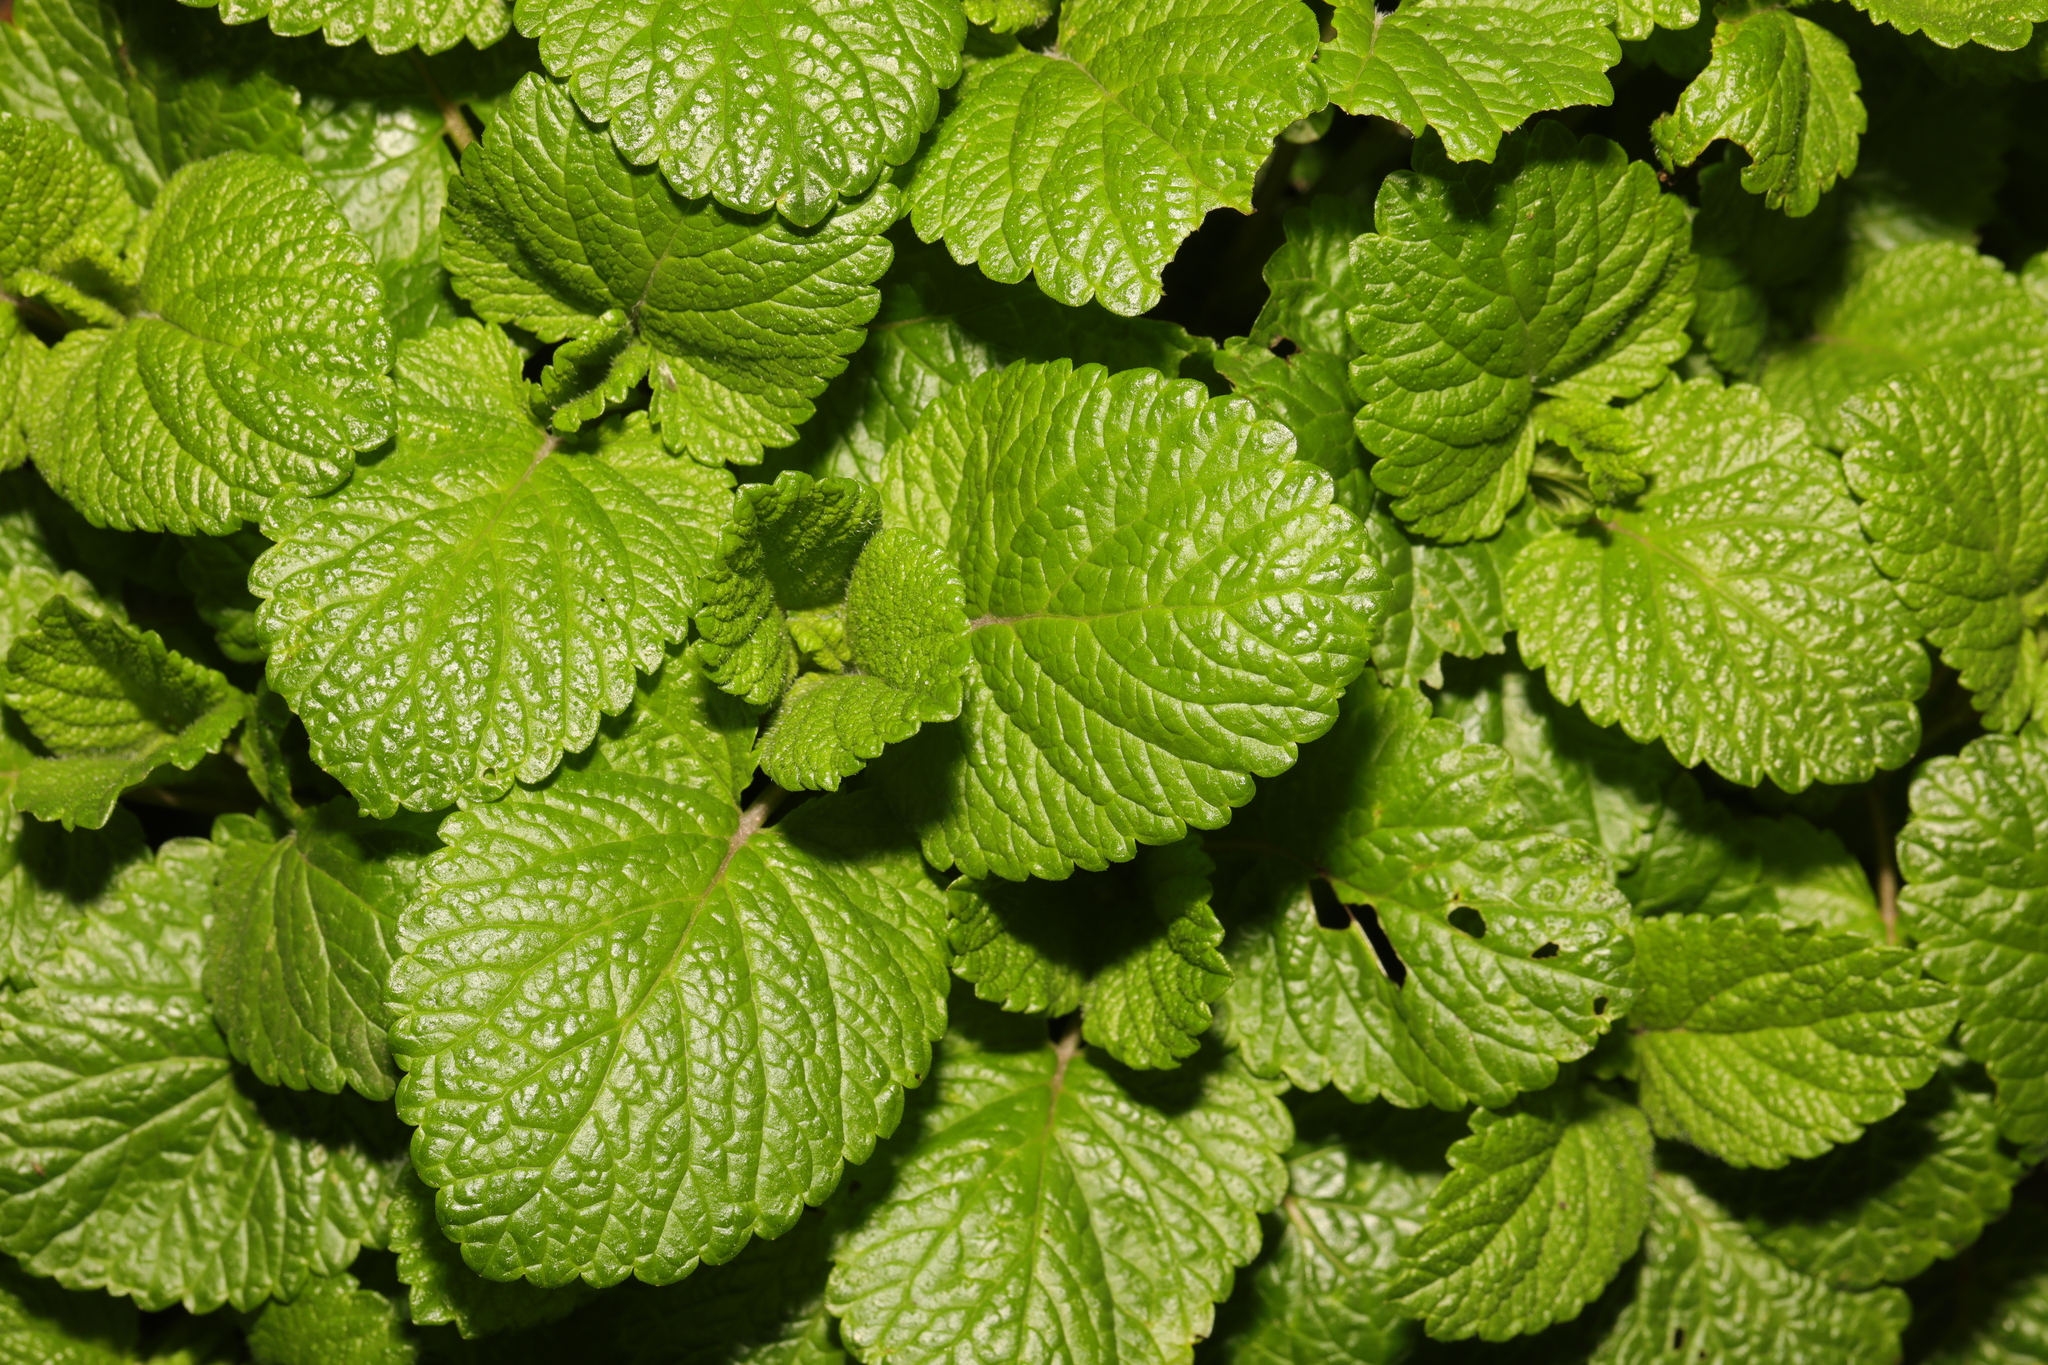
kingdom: Plantae
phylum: Tracheophyta
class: Magnoliopsida
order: Lamiales
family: Lamiaceae
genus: Melissa
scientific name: Melissa officinalis
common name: Balm
